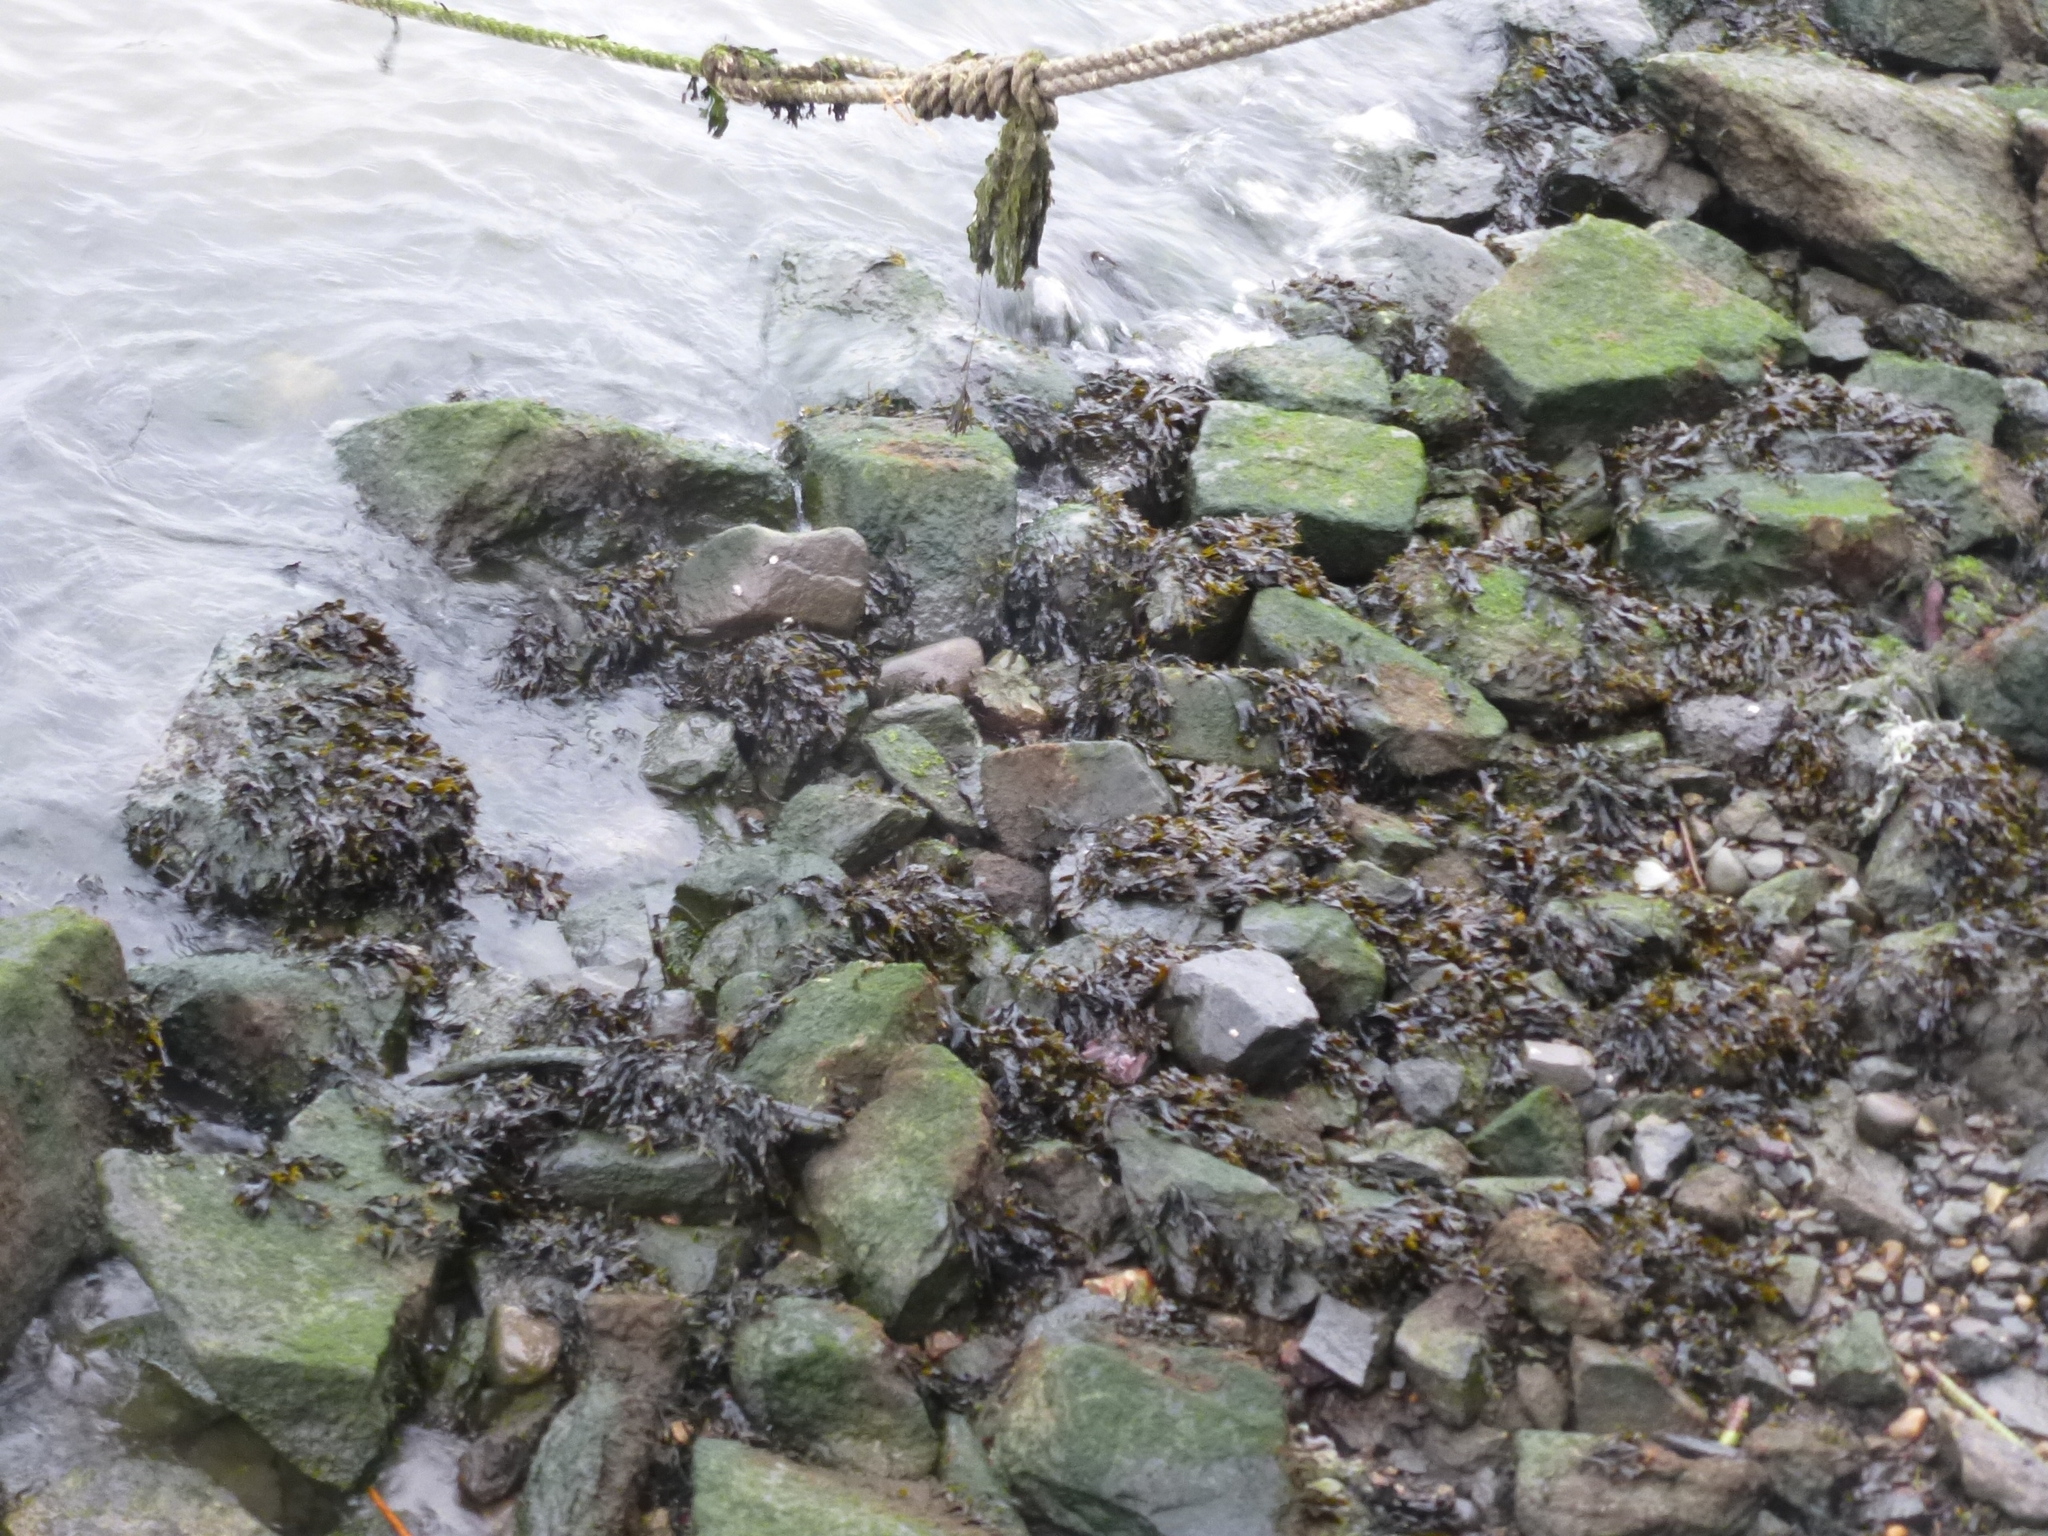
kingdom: Chromista
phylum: Ochrophyta
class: Phaeophyceae
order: Fucales
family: Fucaceae
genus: Fucus
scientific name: Fucus
